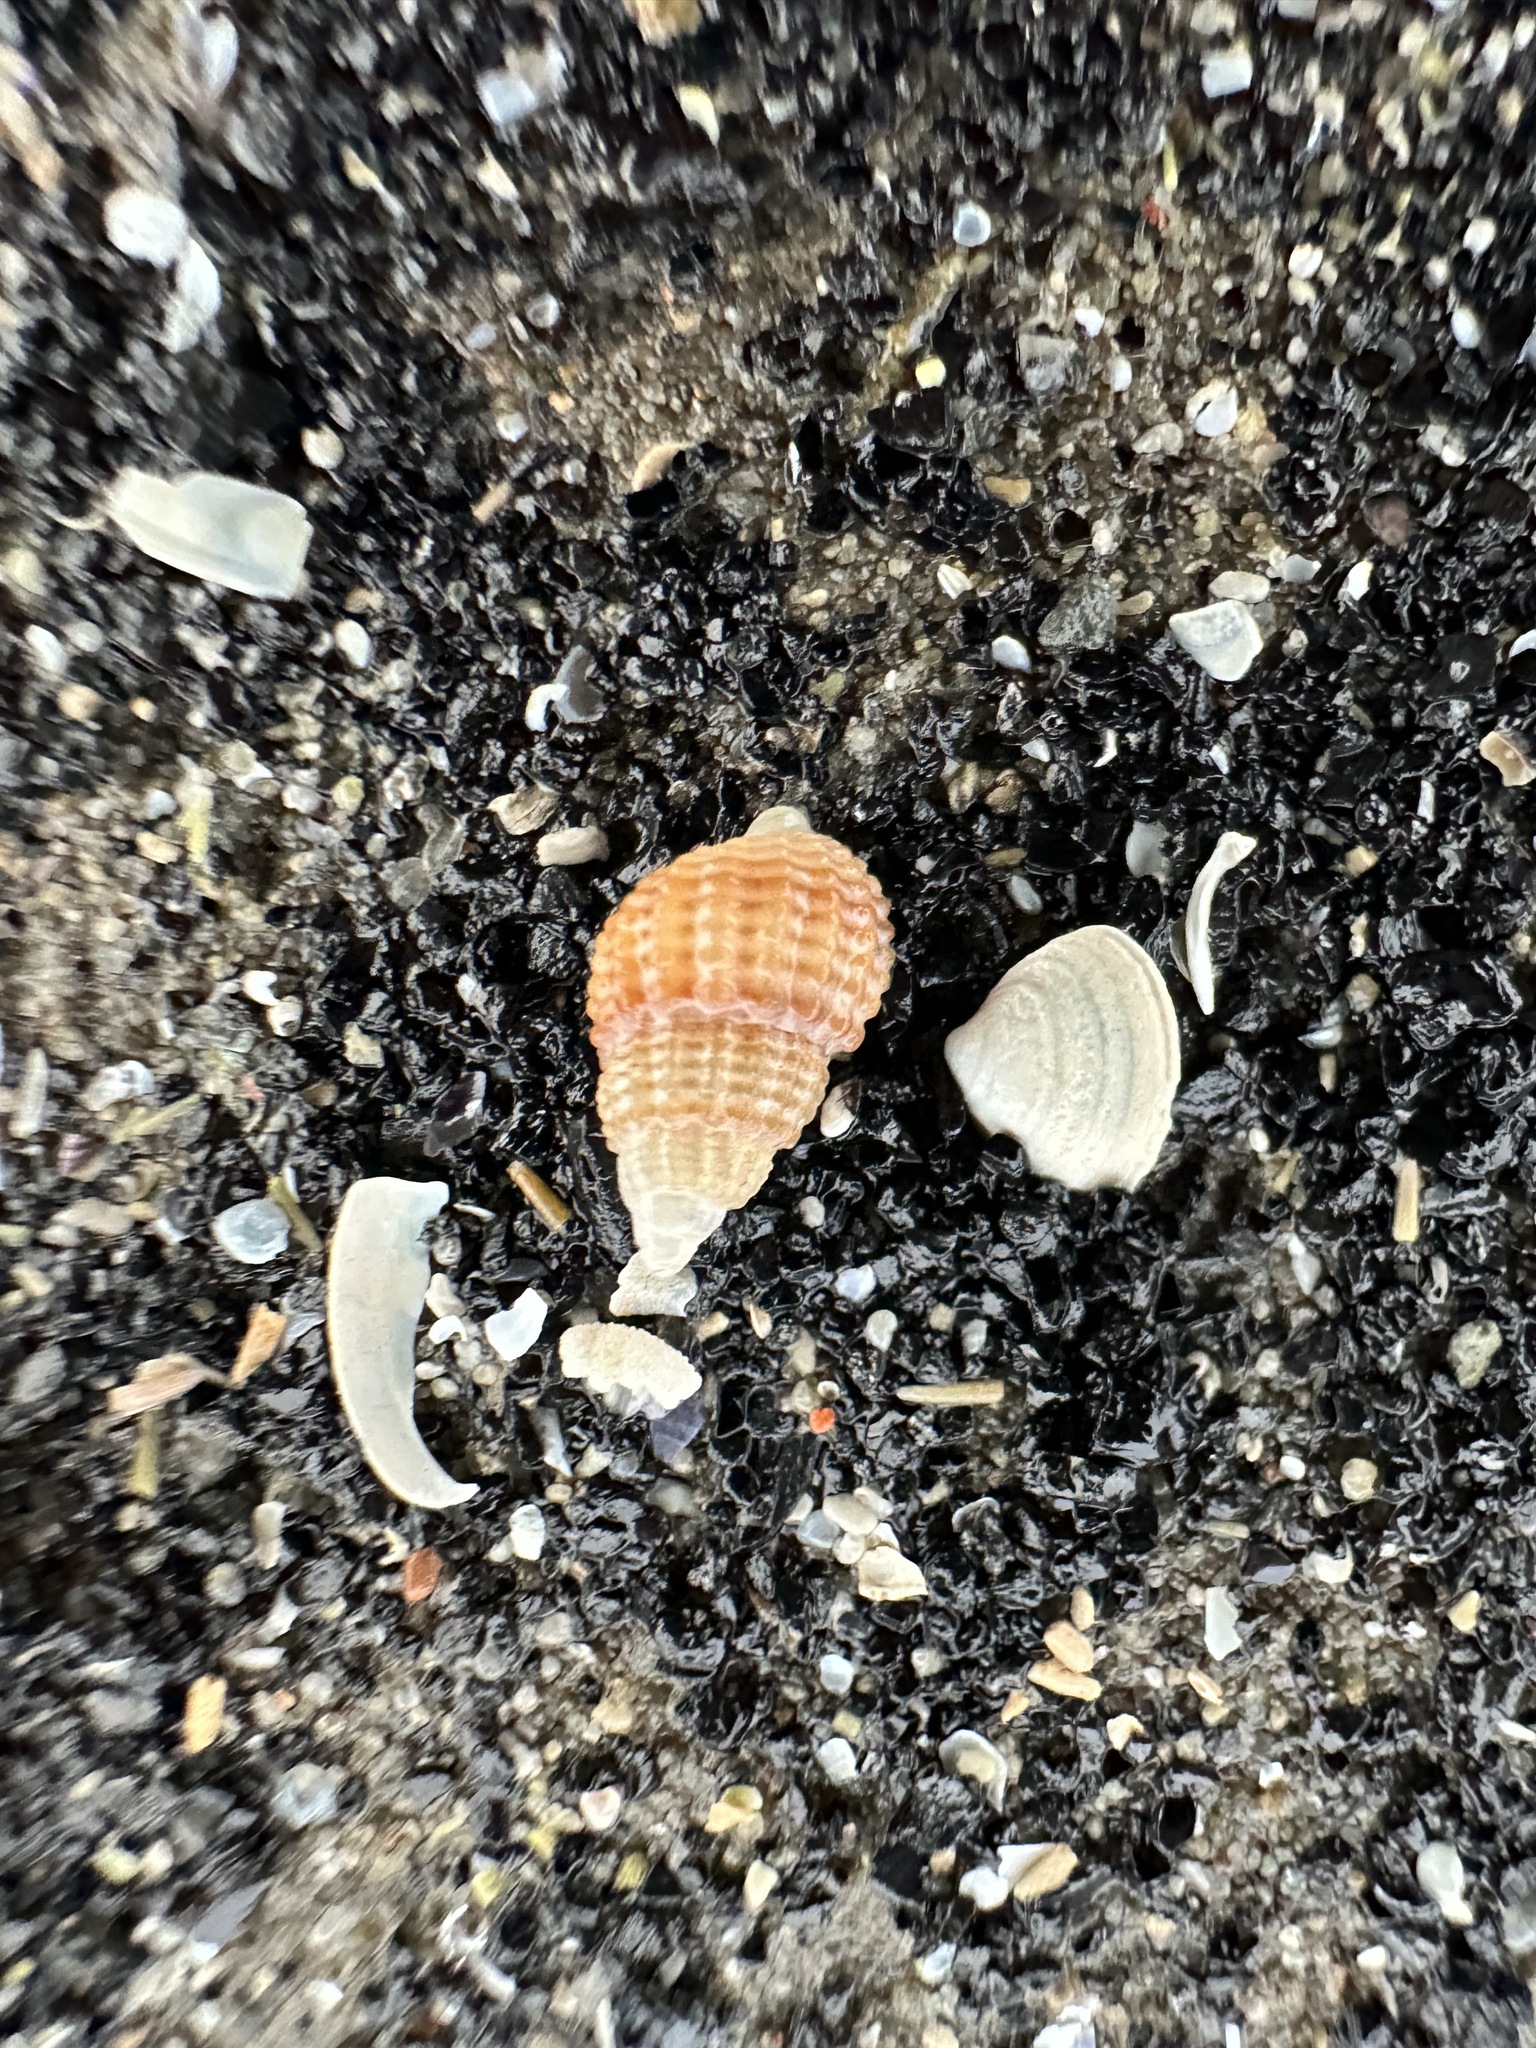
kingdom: Animalia
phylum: Mollusca
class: Gastropoda
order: Neogastropoda
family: Nassariidae
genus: Ilyanassa
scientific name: Ilyanassa trivittata
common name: Three-line mudsnail
